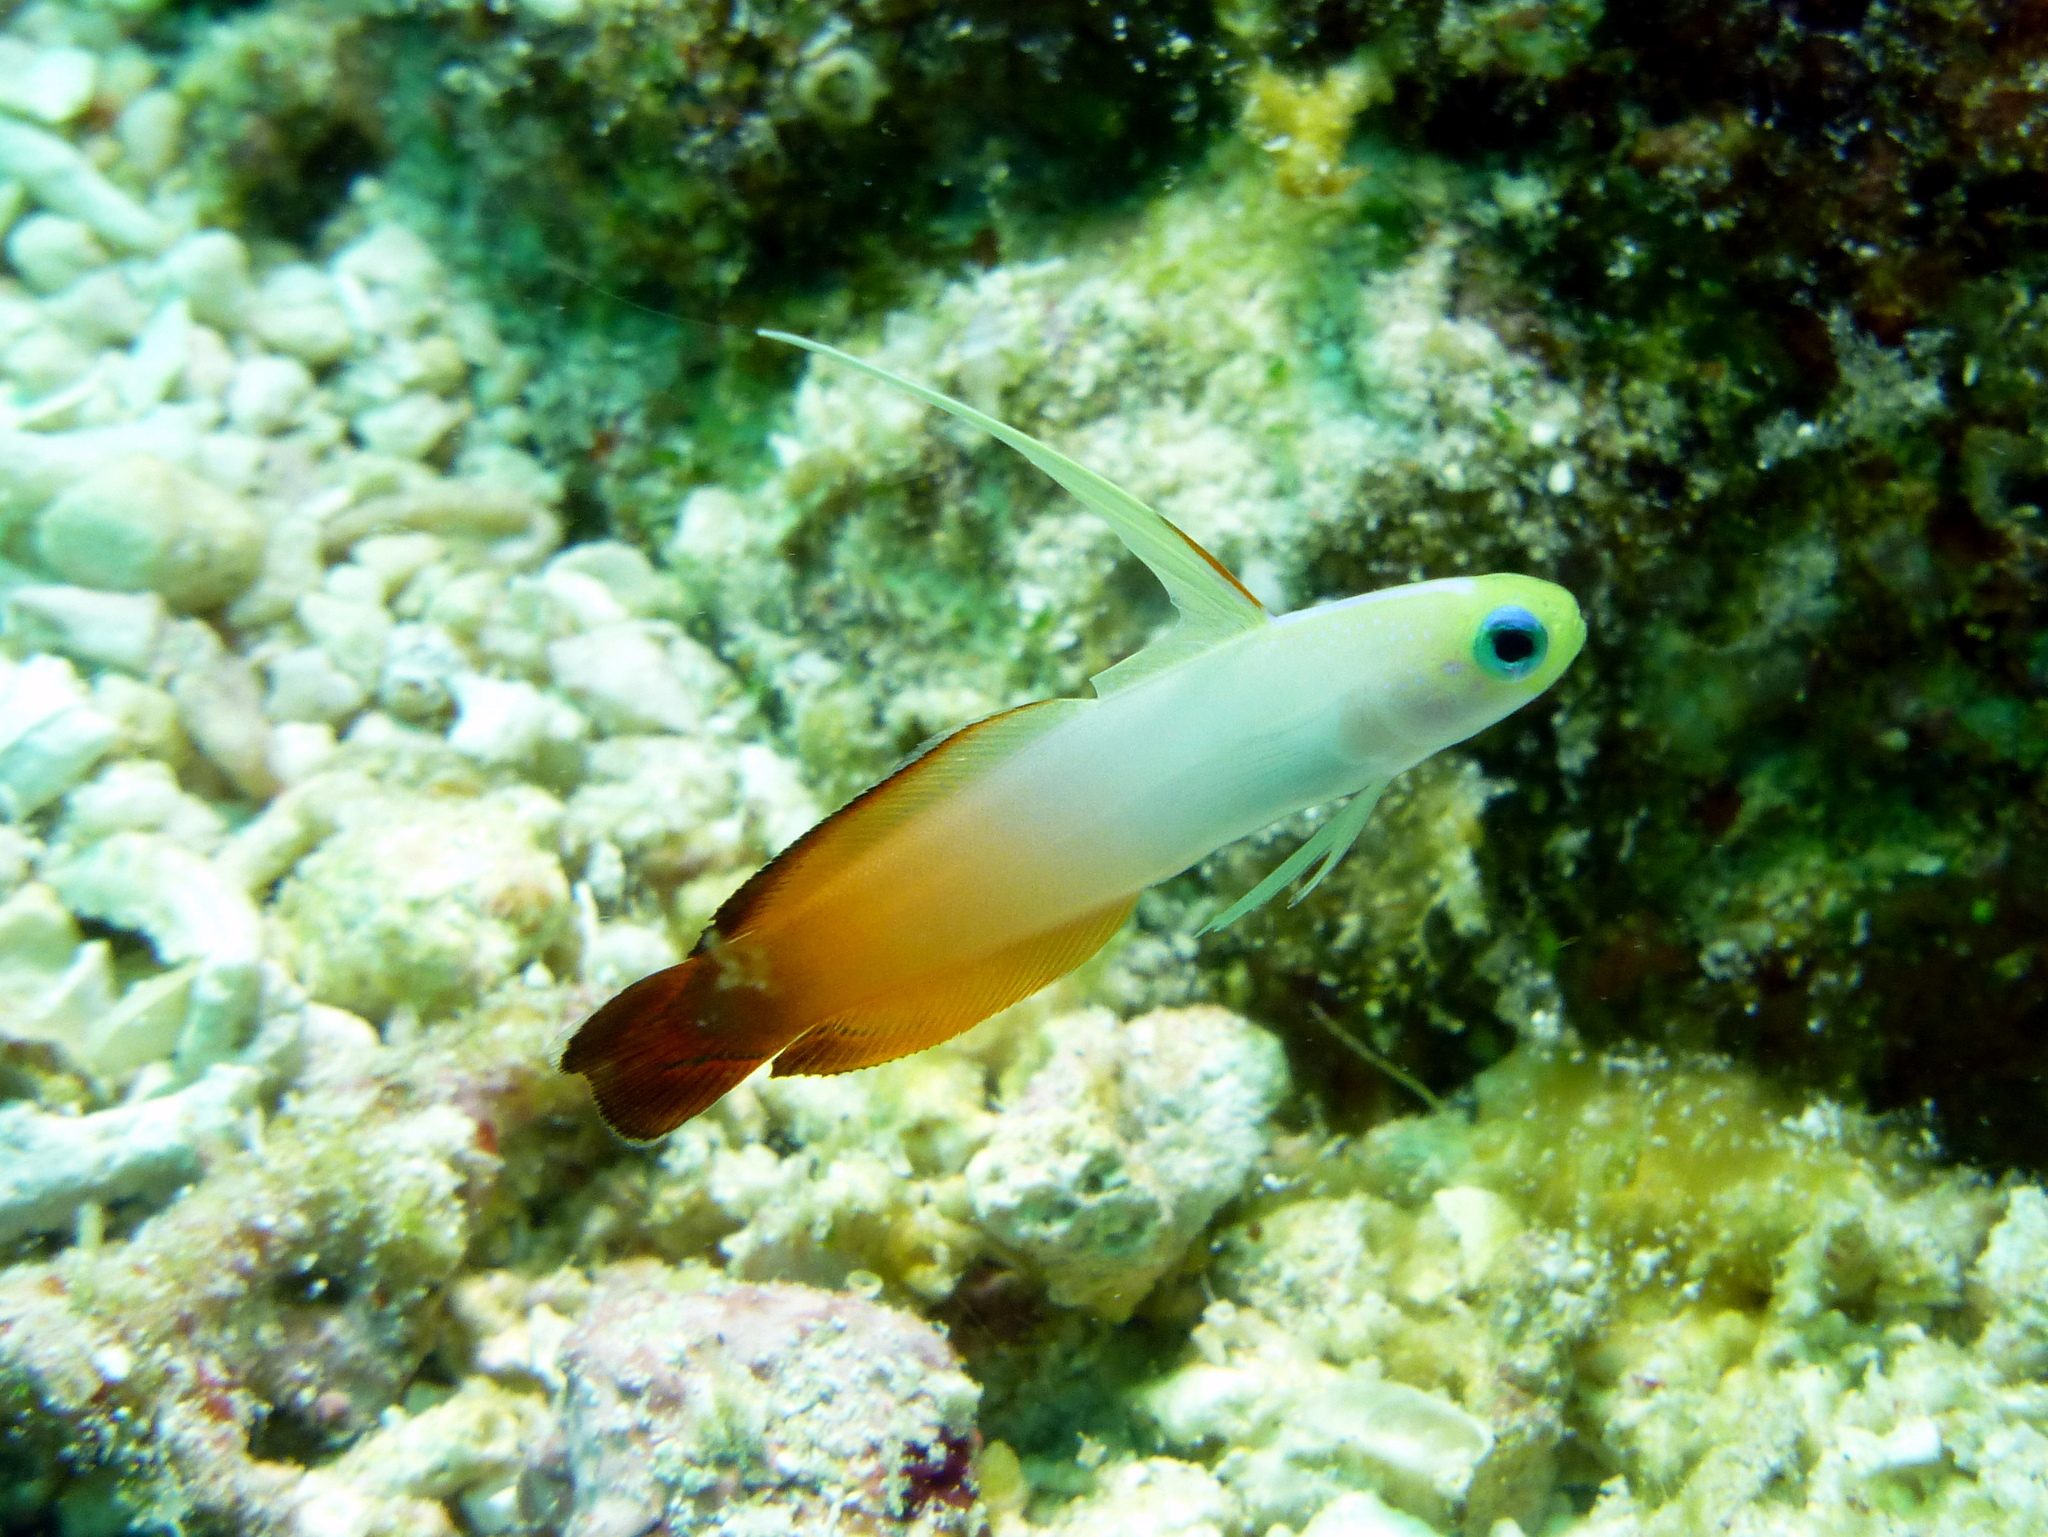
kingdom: Animalia
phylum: Chordata
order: Perciformes
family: Microdesmidae
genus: Nemateleotris
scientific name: Nemateleotris magnifica
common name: Fire goby
